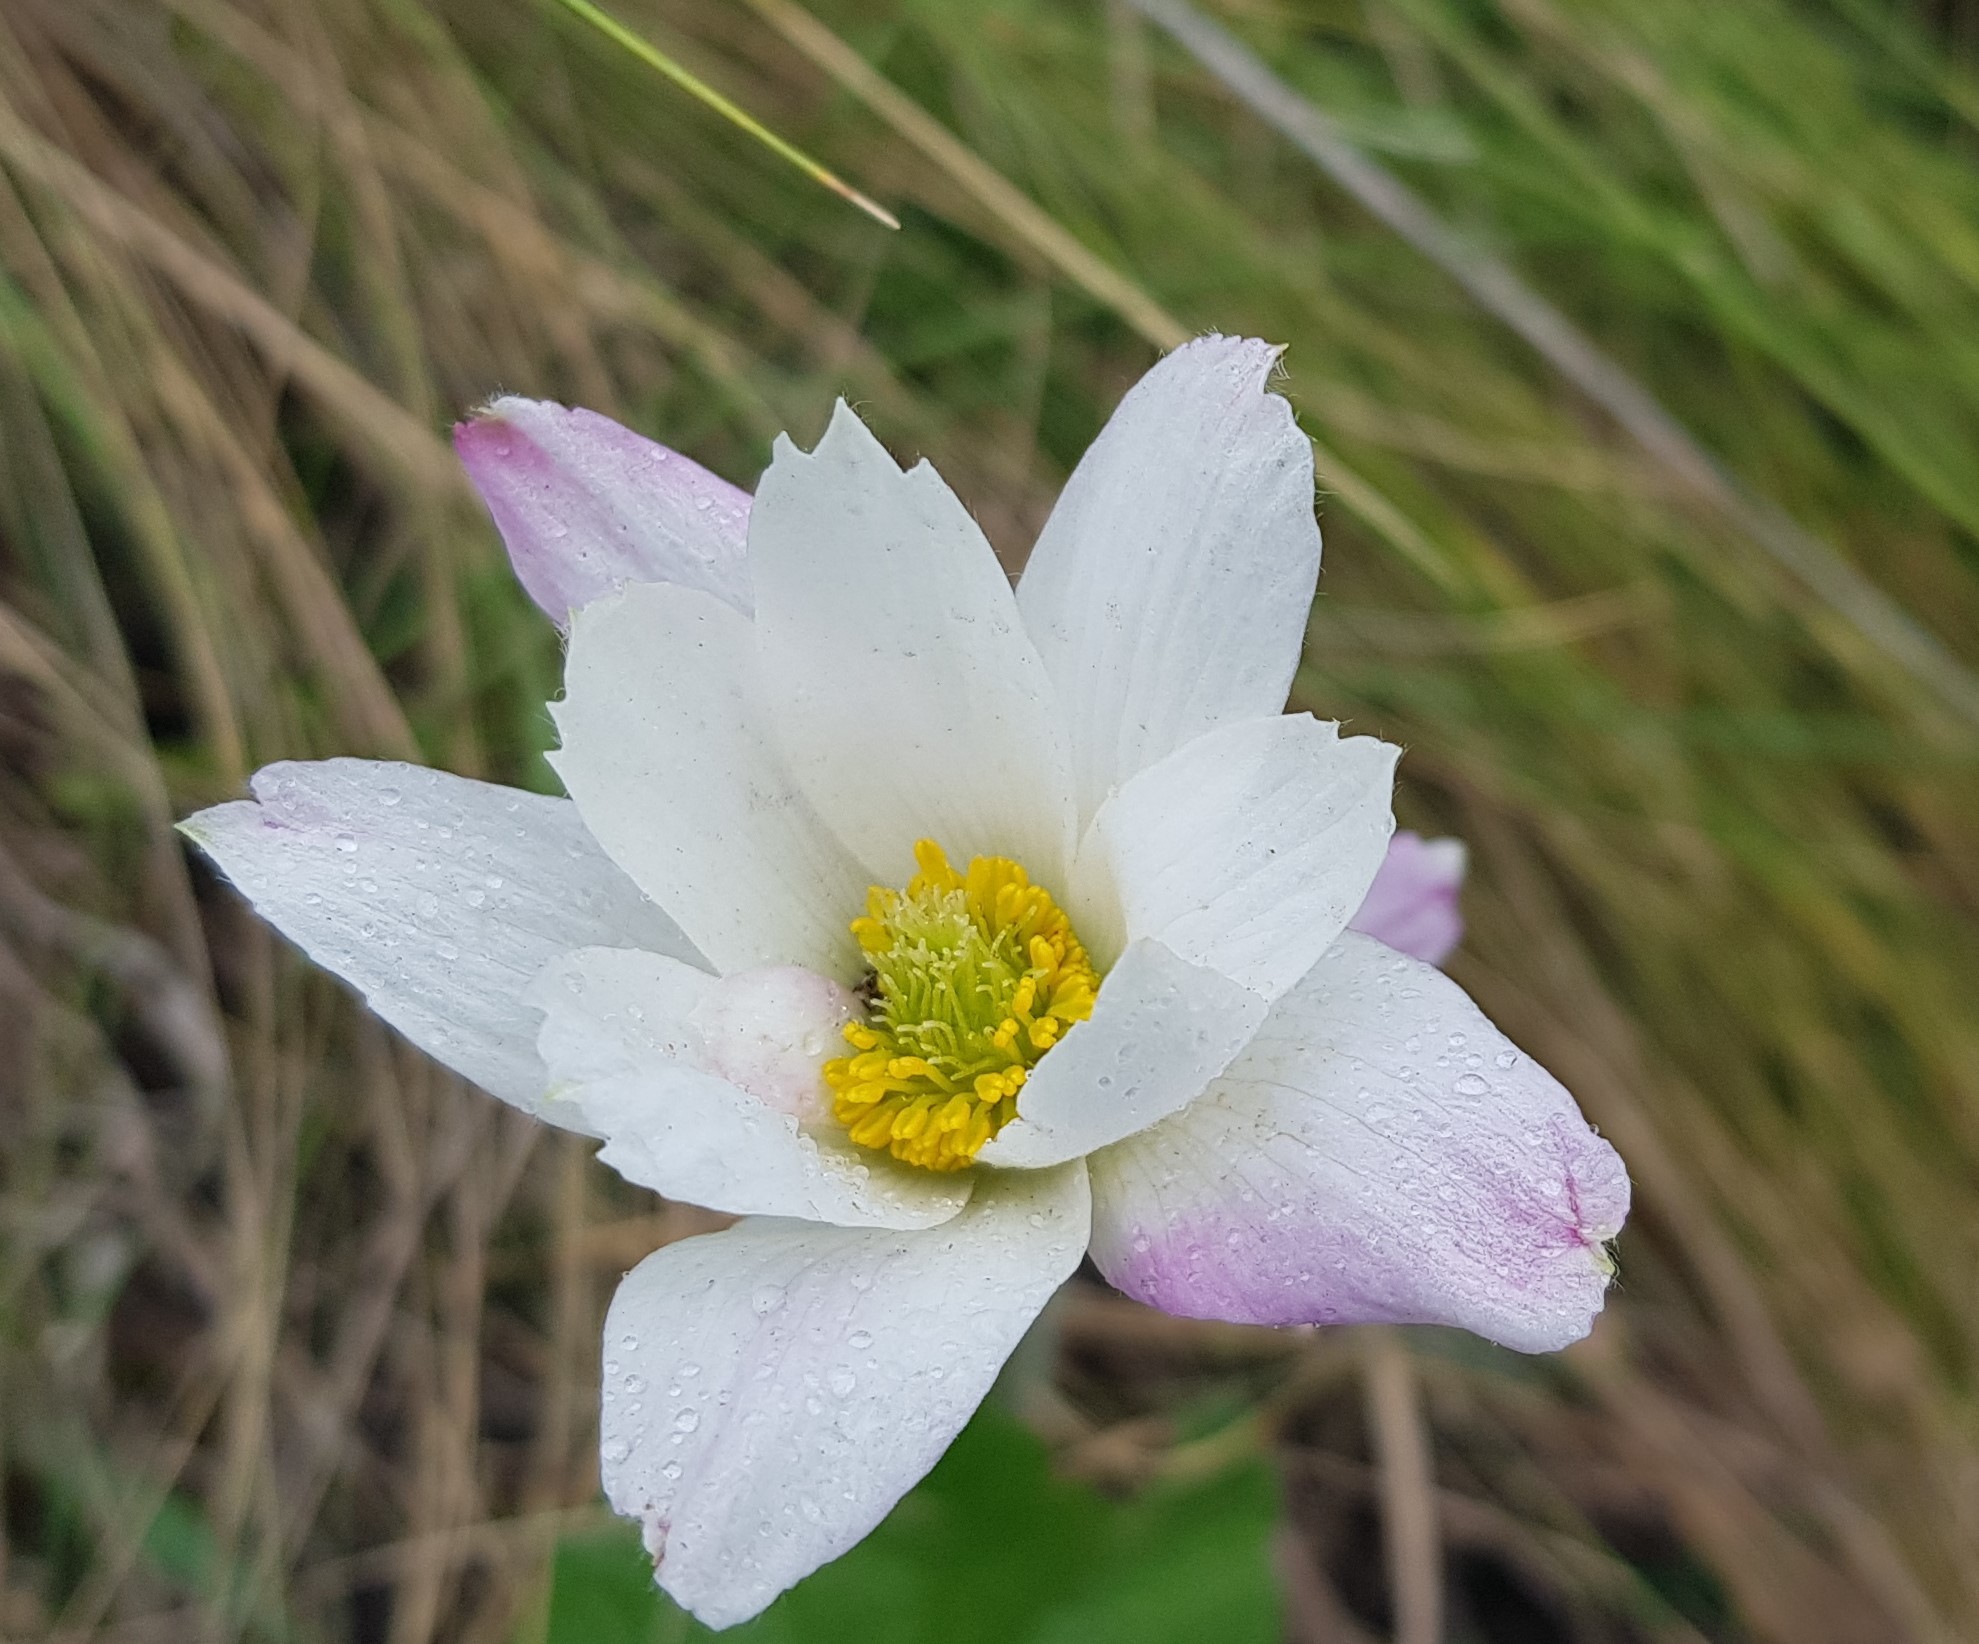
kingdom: Plantae
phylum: Tracheophyta
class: Magnoliopsida
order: Ranunculales
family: Ranunculaceae
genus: Knowltonia
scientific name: Knowltonia caffra
